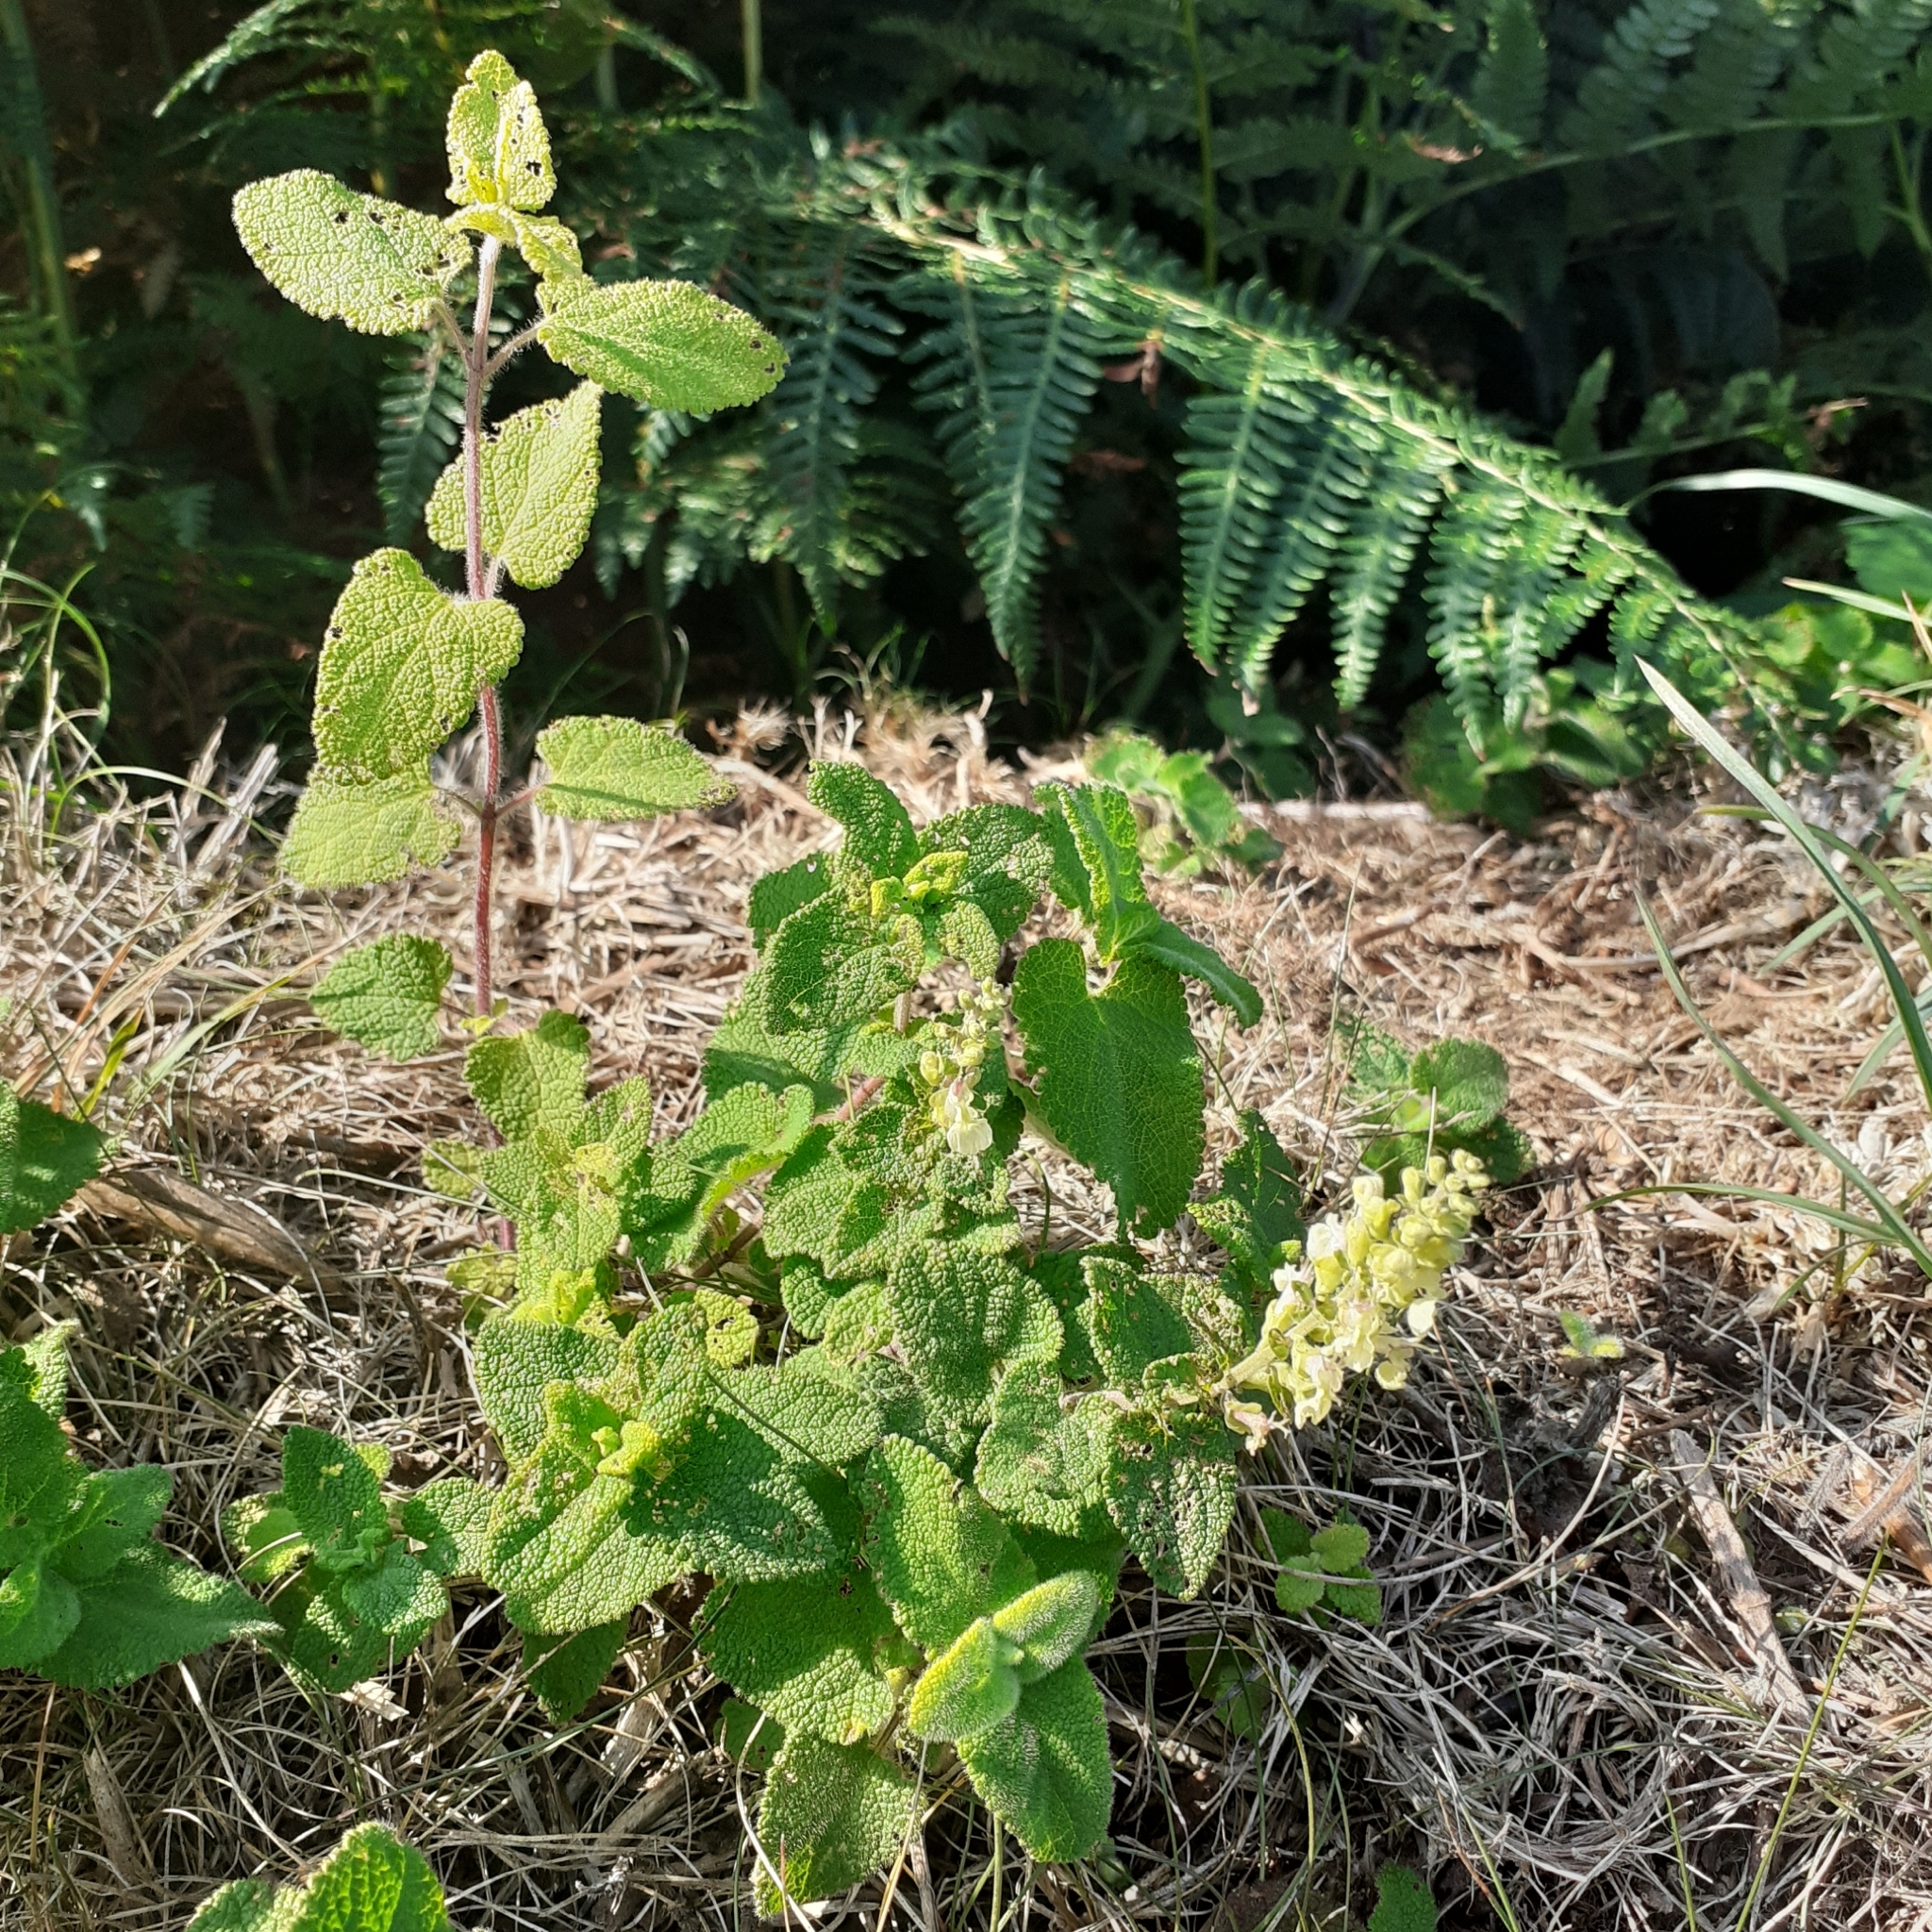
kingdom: Plantae
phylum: Tracheophyta
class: Magnoliopsida
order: Lamiales
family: Lamiaceae
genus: Teucrium
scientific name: Teucrium scorodonia
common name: Woodland germander
